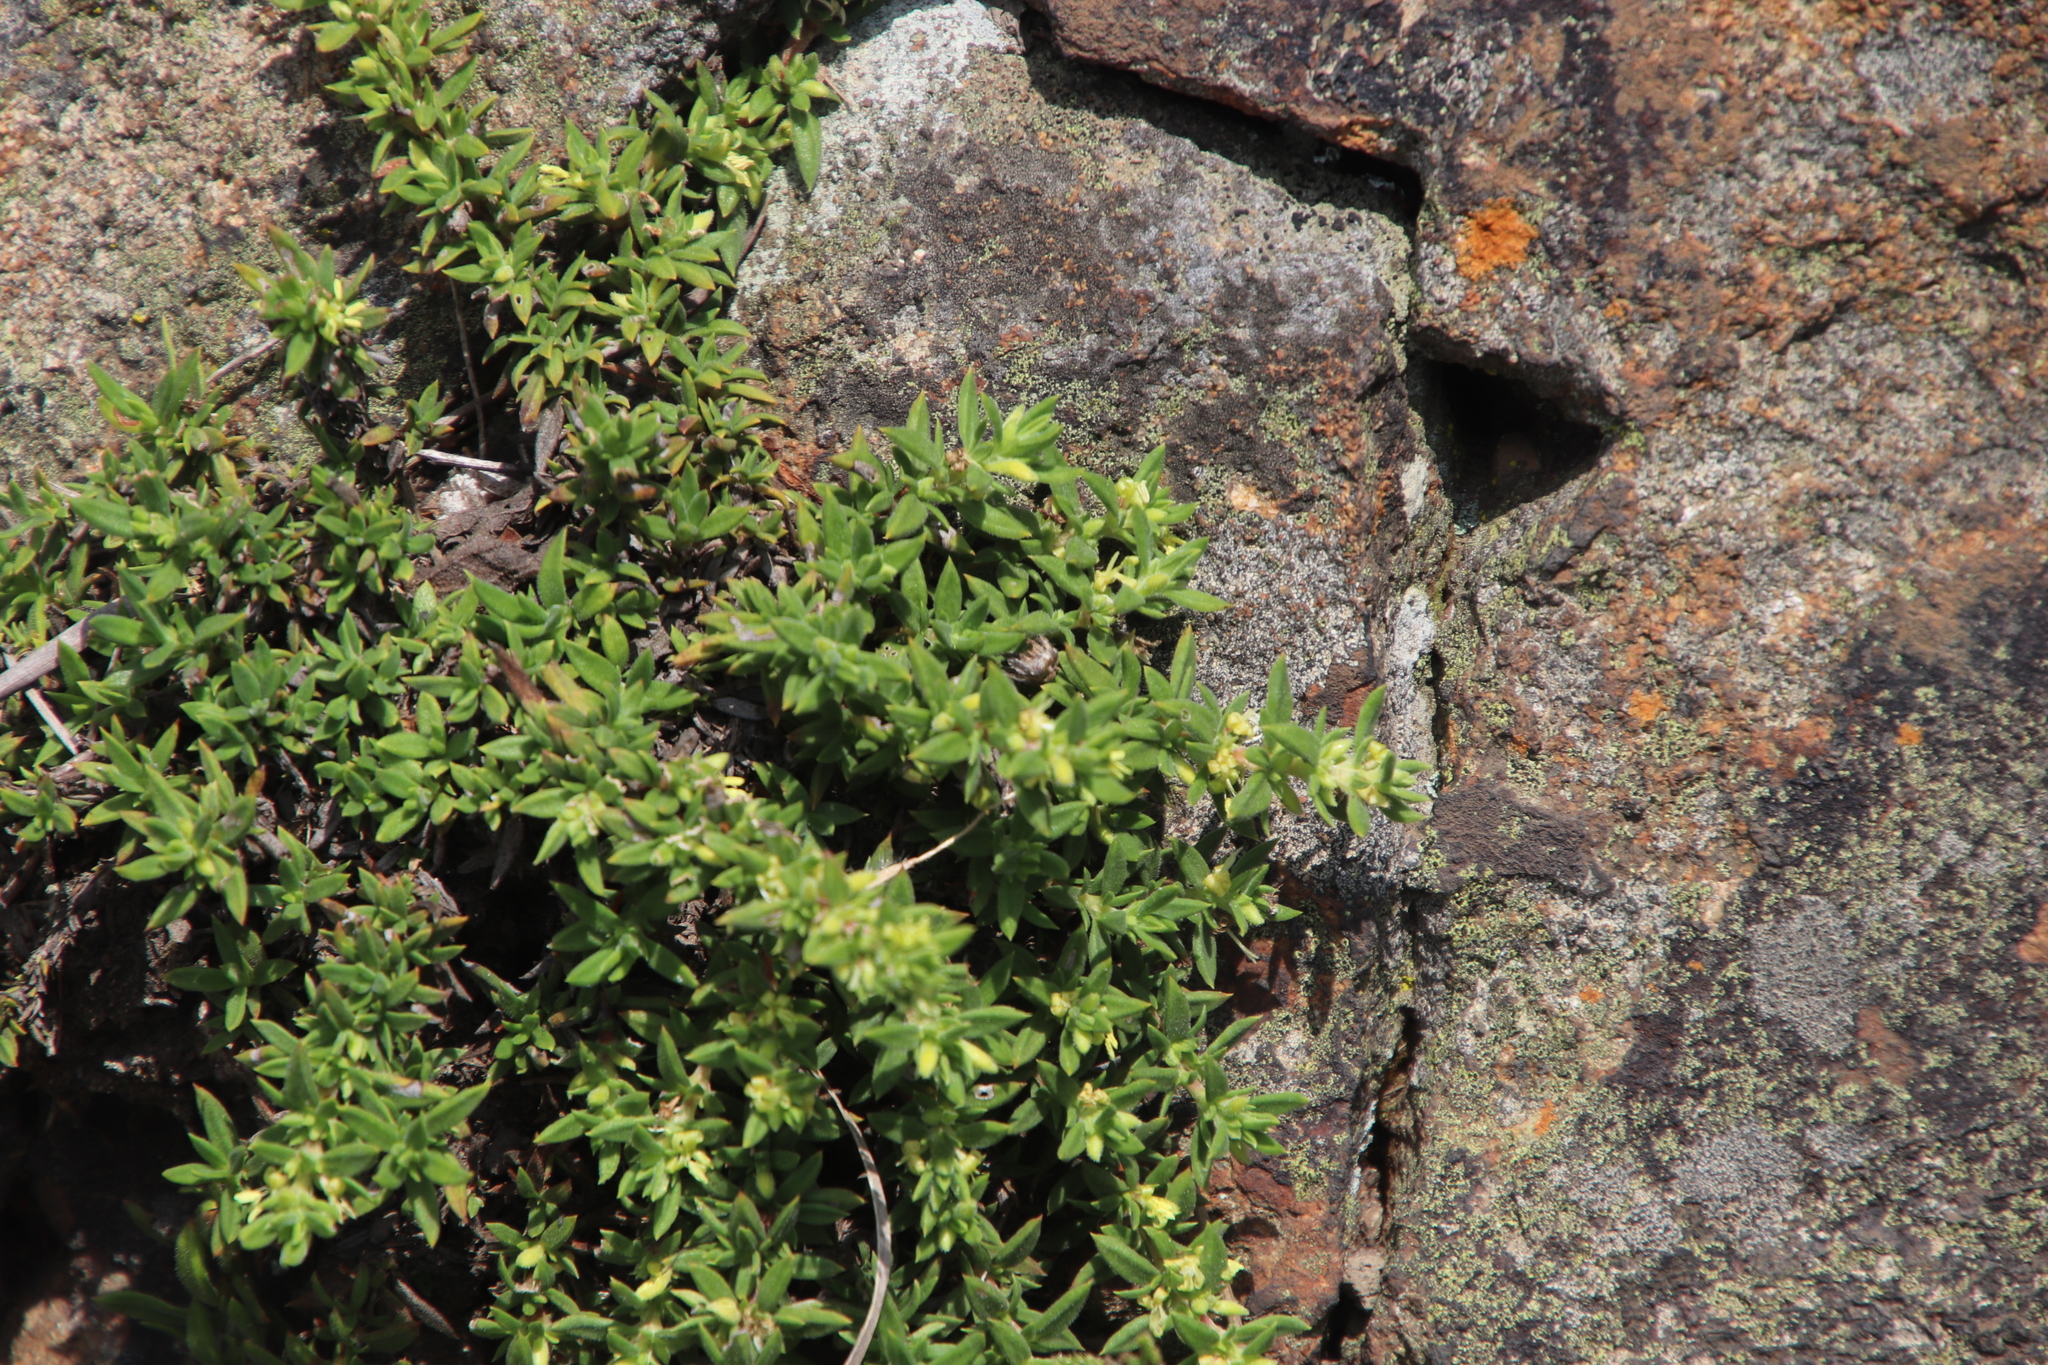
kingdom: Plantae
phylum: Tracheophyta
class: Magnoliopsida
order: Gentianales
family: Rubiaceae
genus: Anthospermum
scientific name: Anthospermum herbaceum
